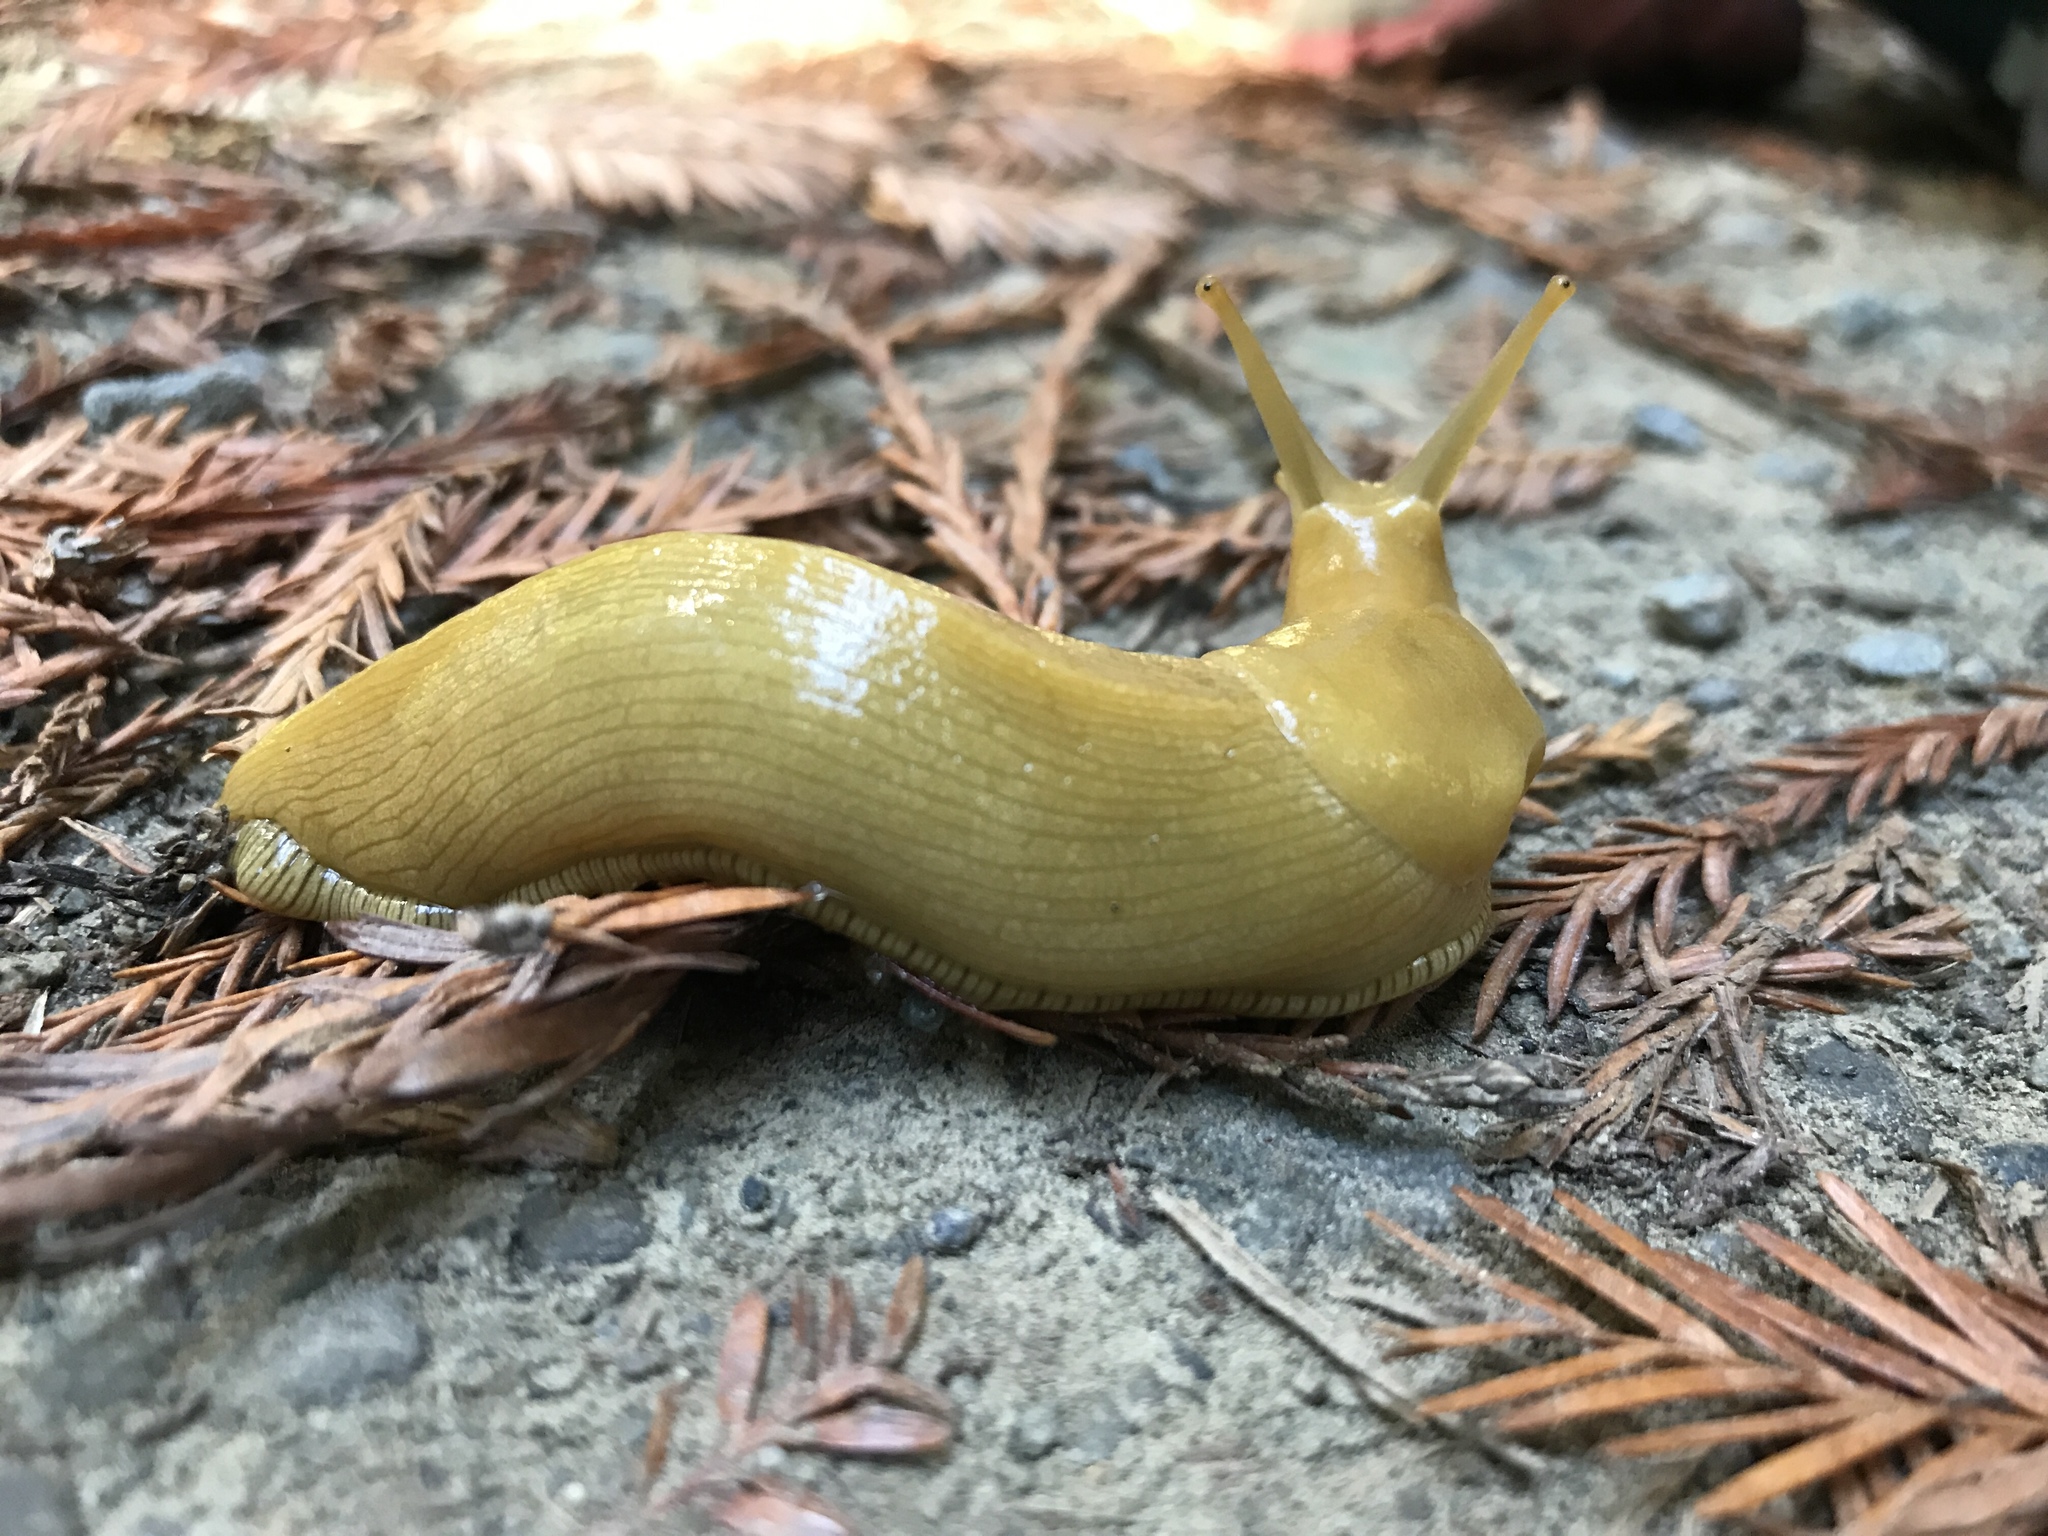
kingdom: Animalia
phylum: Mollusca
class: Gastropoda
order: Stylommatophora
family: Ariolimacidae
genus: Ariolimax
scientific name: Ariolimax columbianus
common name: Pacific banana slug
